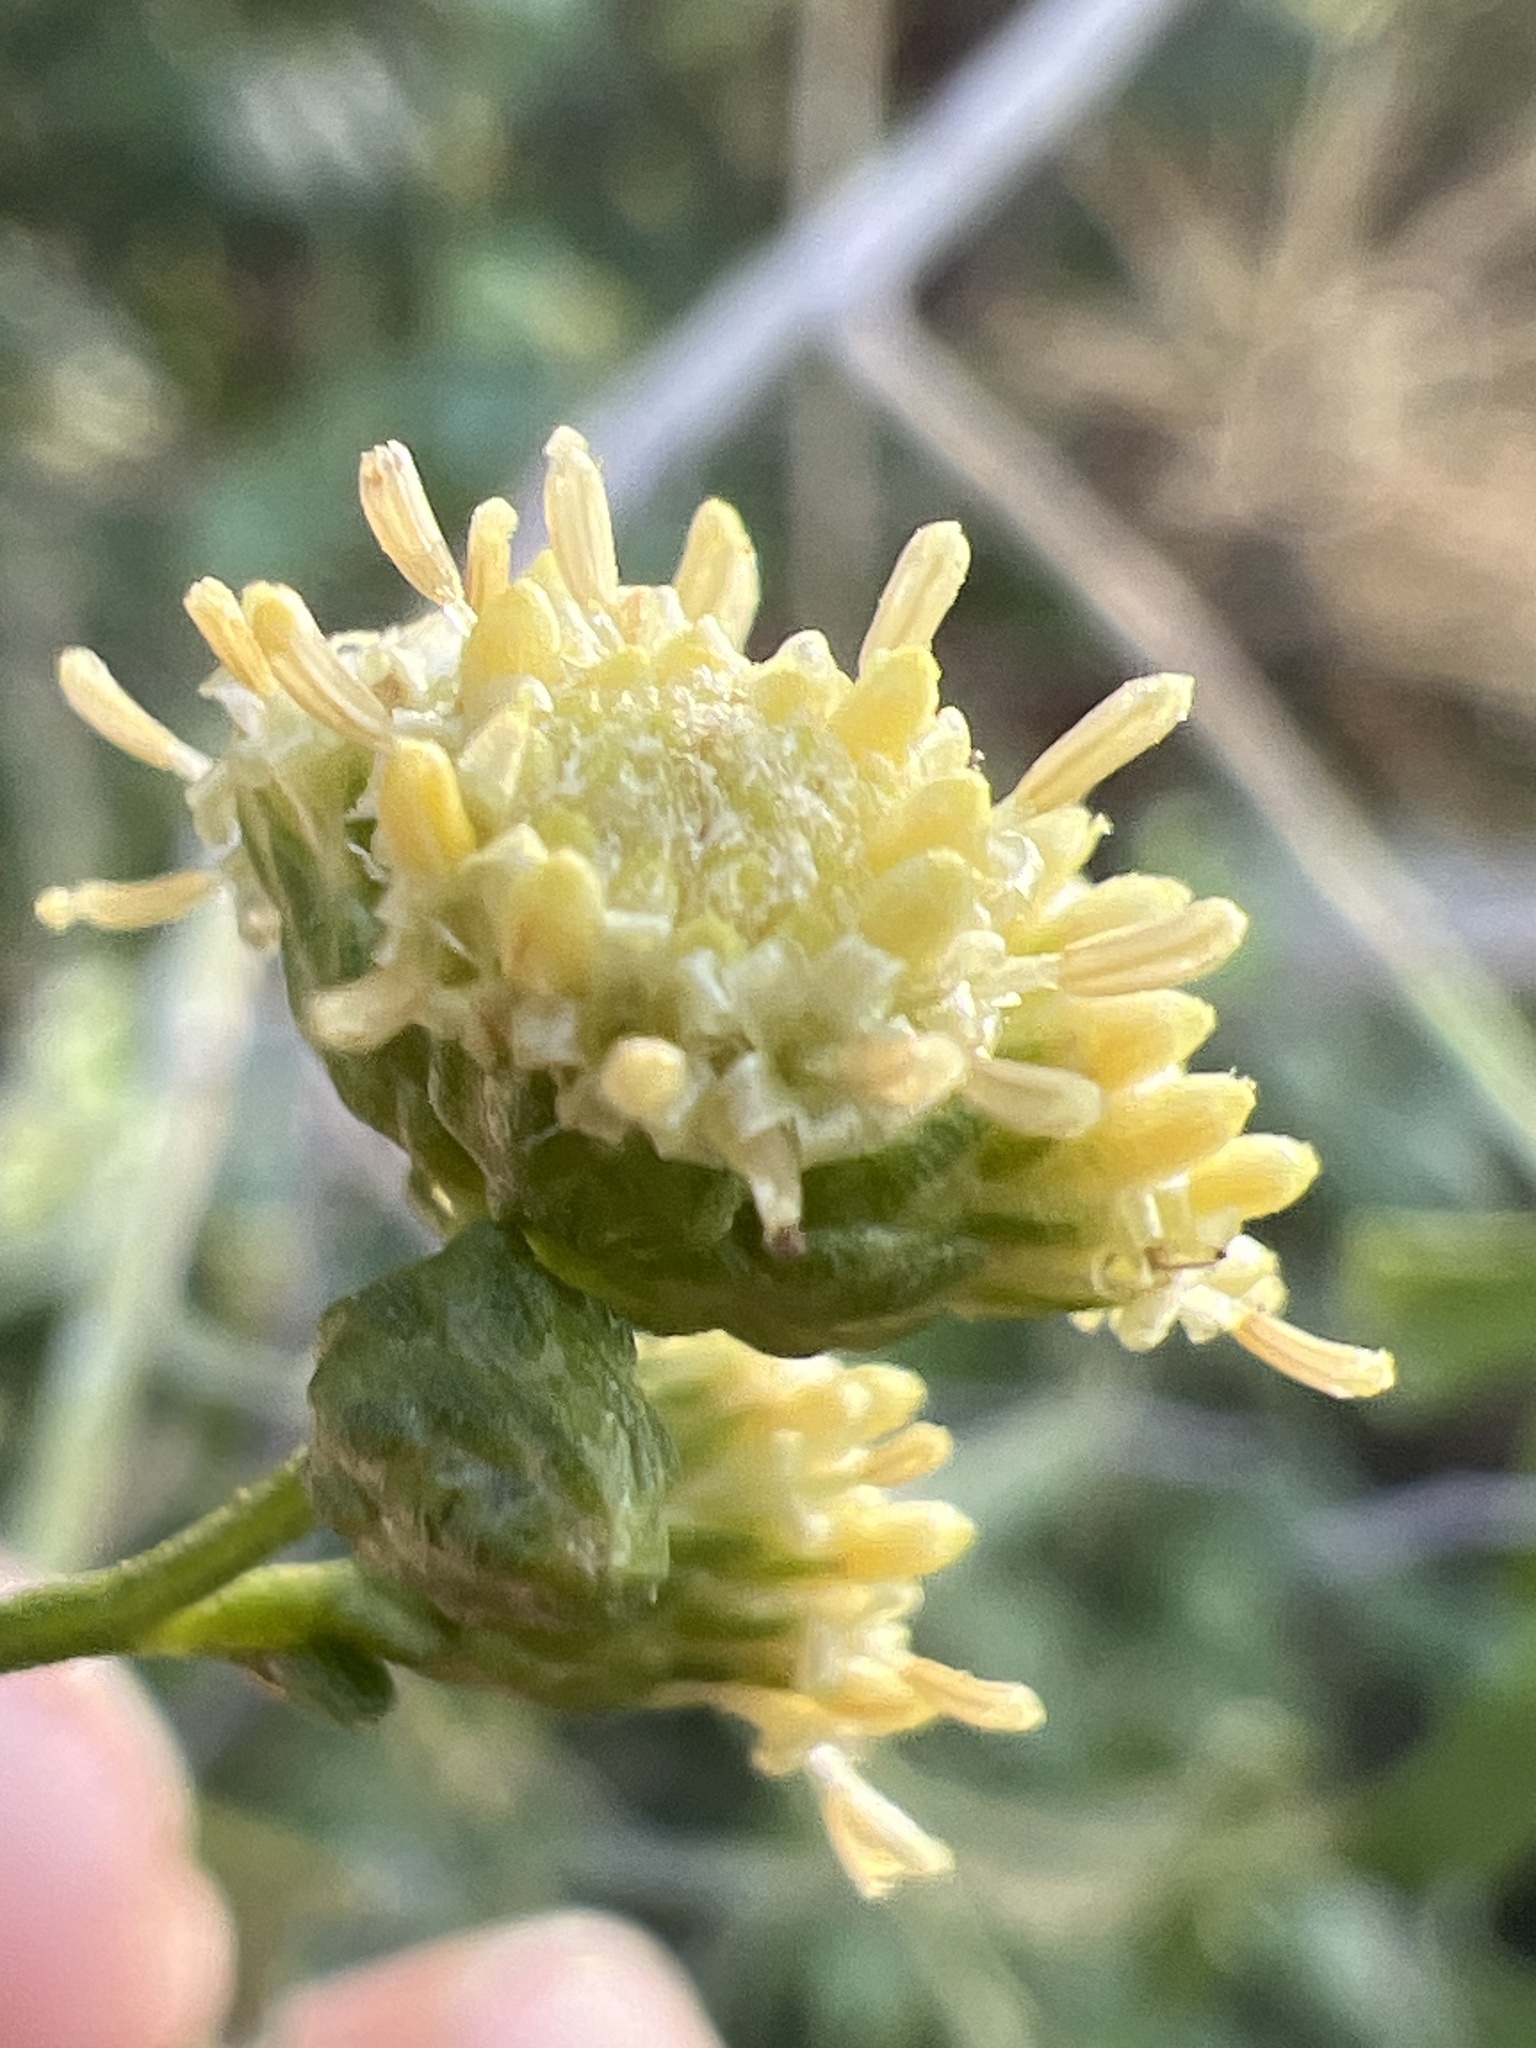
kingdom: Plantae
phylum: Tracheophyta
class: Magnoliopsida
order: Asterales
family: Asteraceae
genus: Baccharis
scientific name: Baccharis halimifolia
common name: Eastern baccharis
